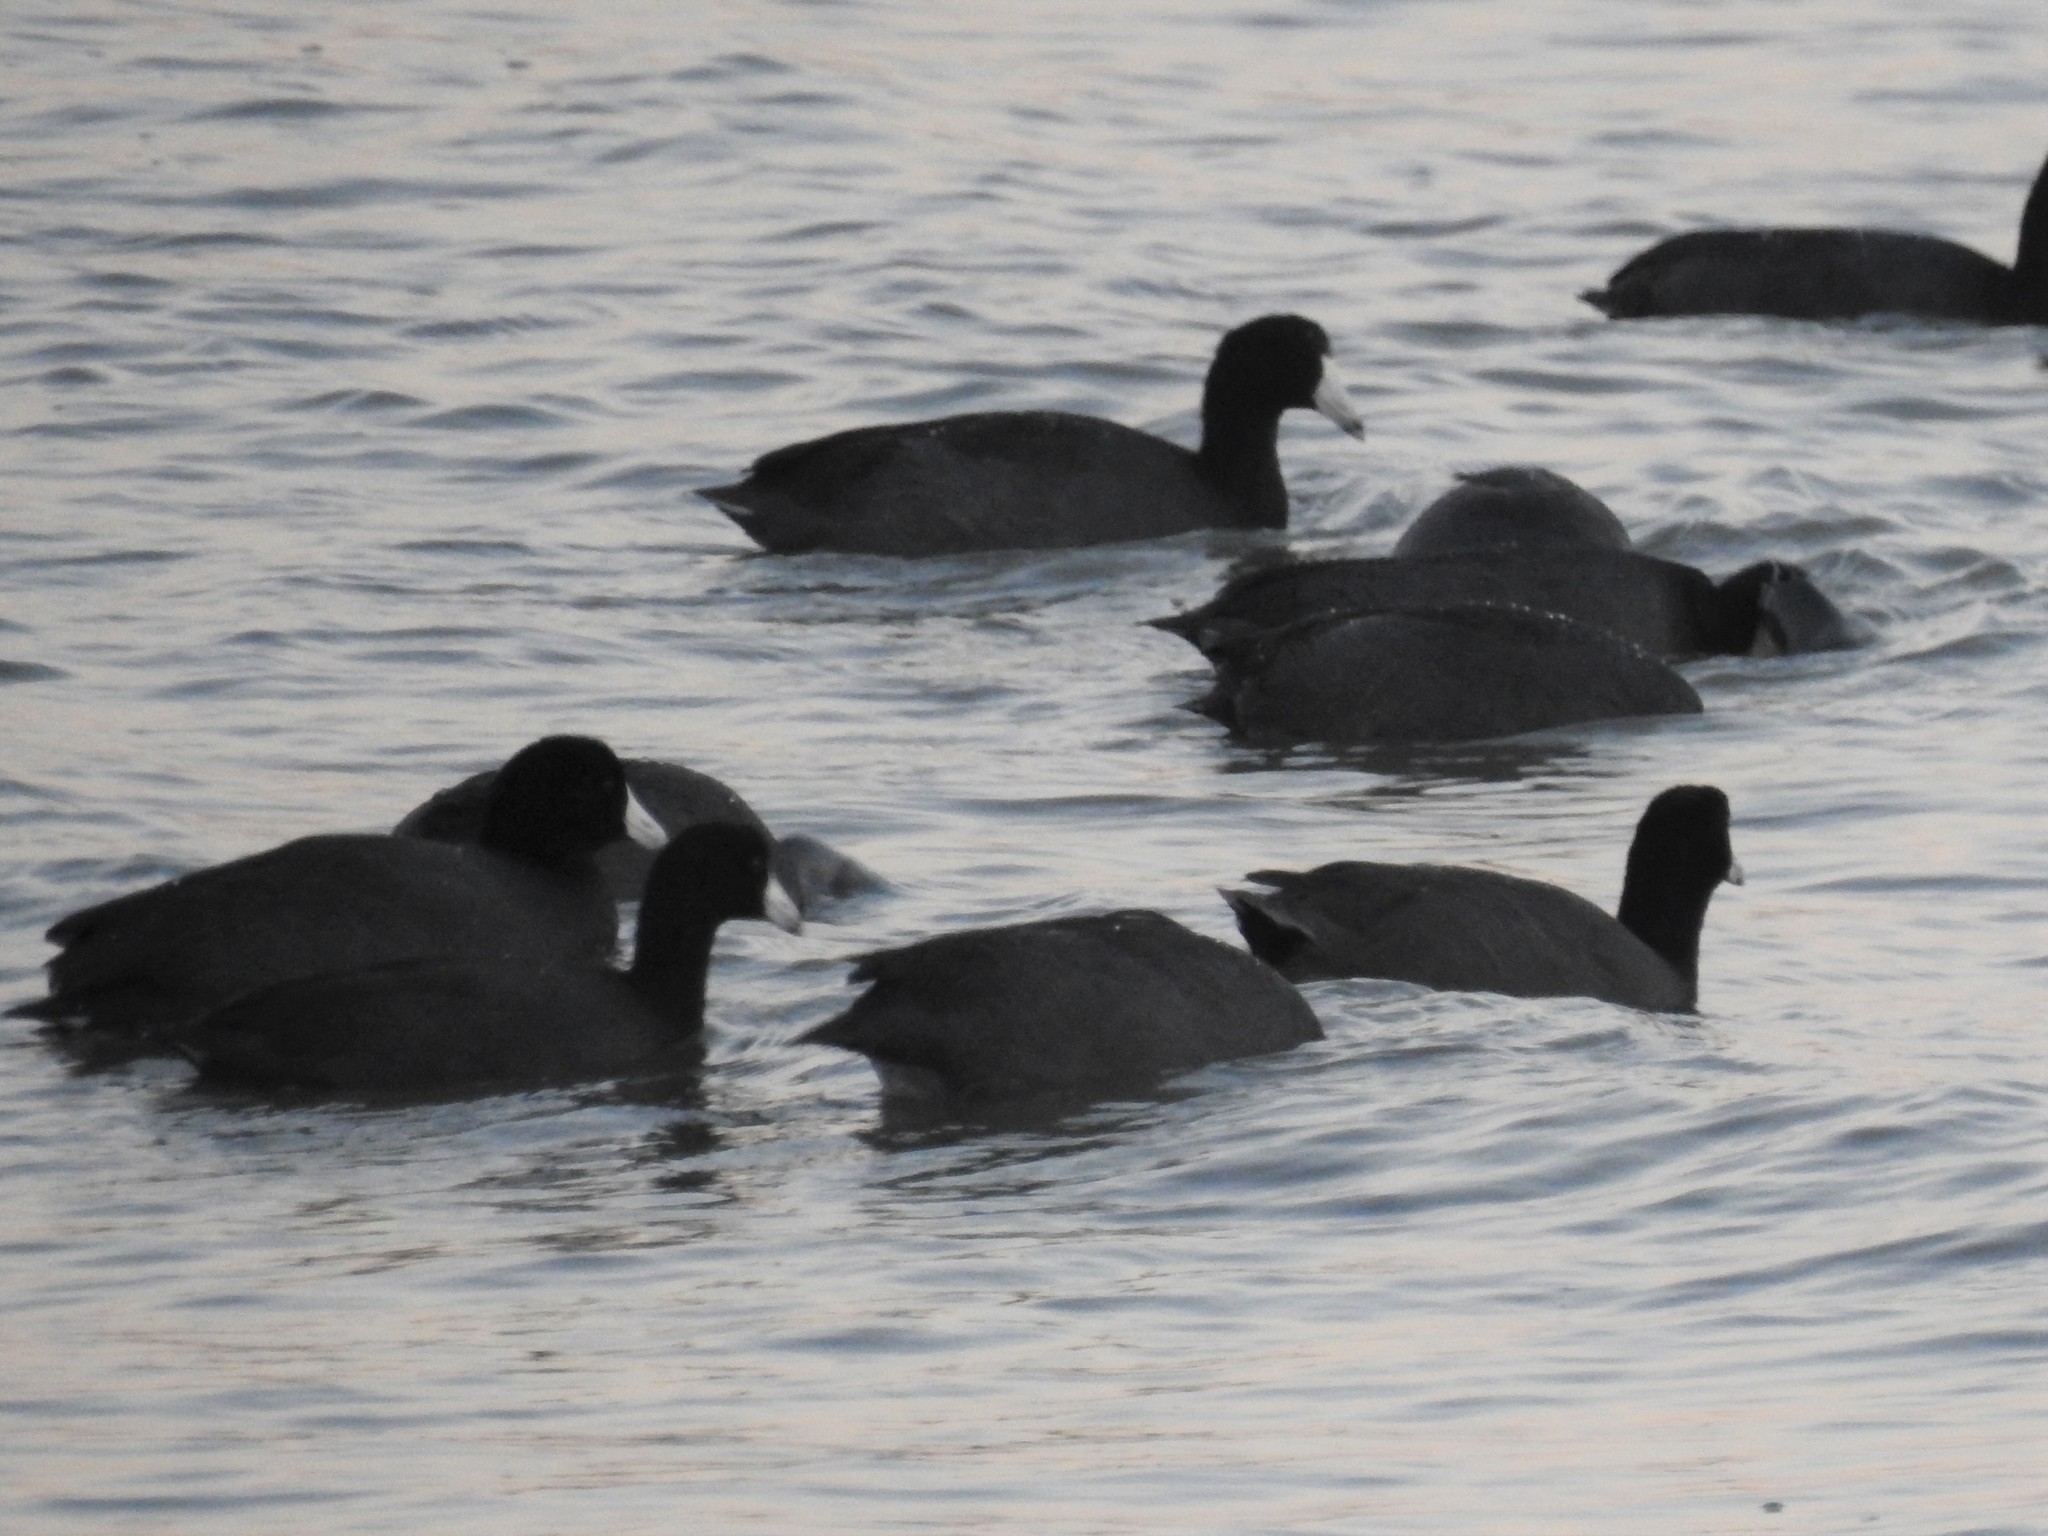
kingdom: Animalia
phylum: Chordata
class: Aves
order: Gruiformes
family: Rallidae
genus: Fulica
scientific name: Fulica americana
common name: American coot
